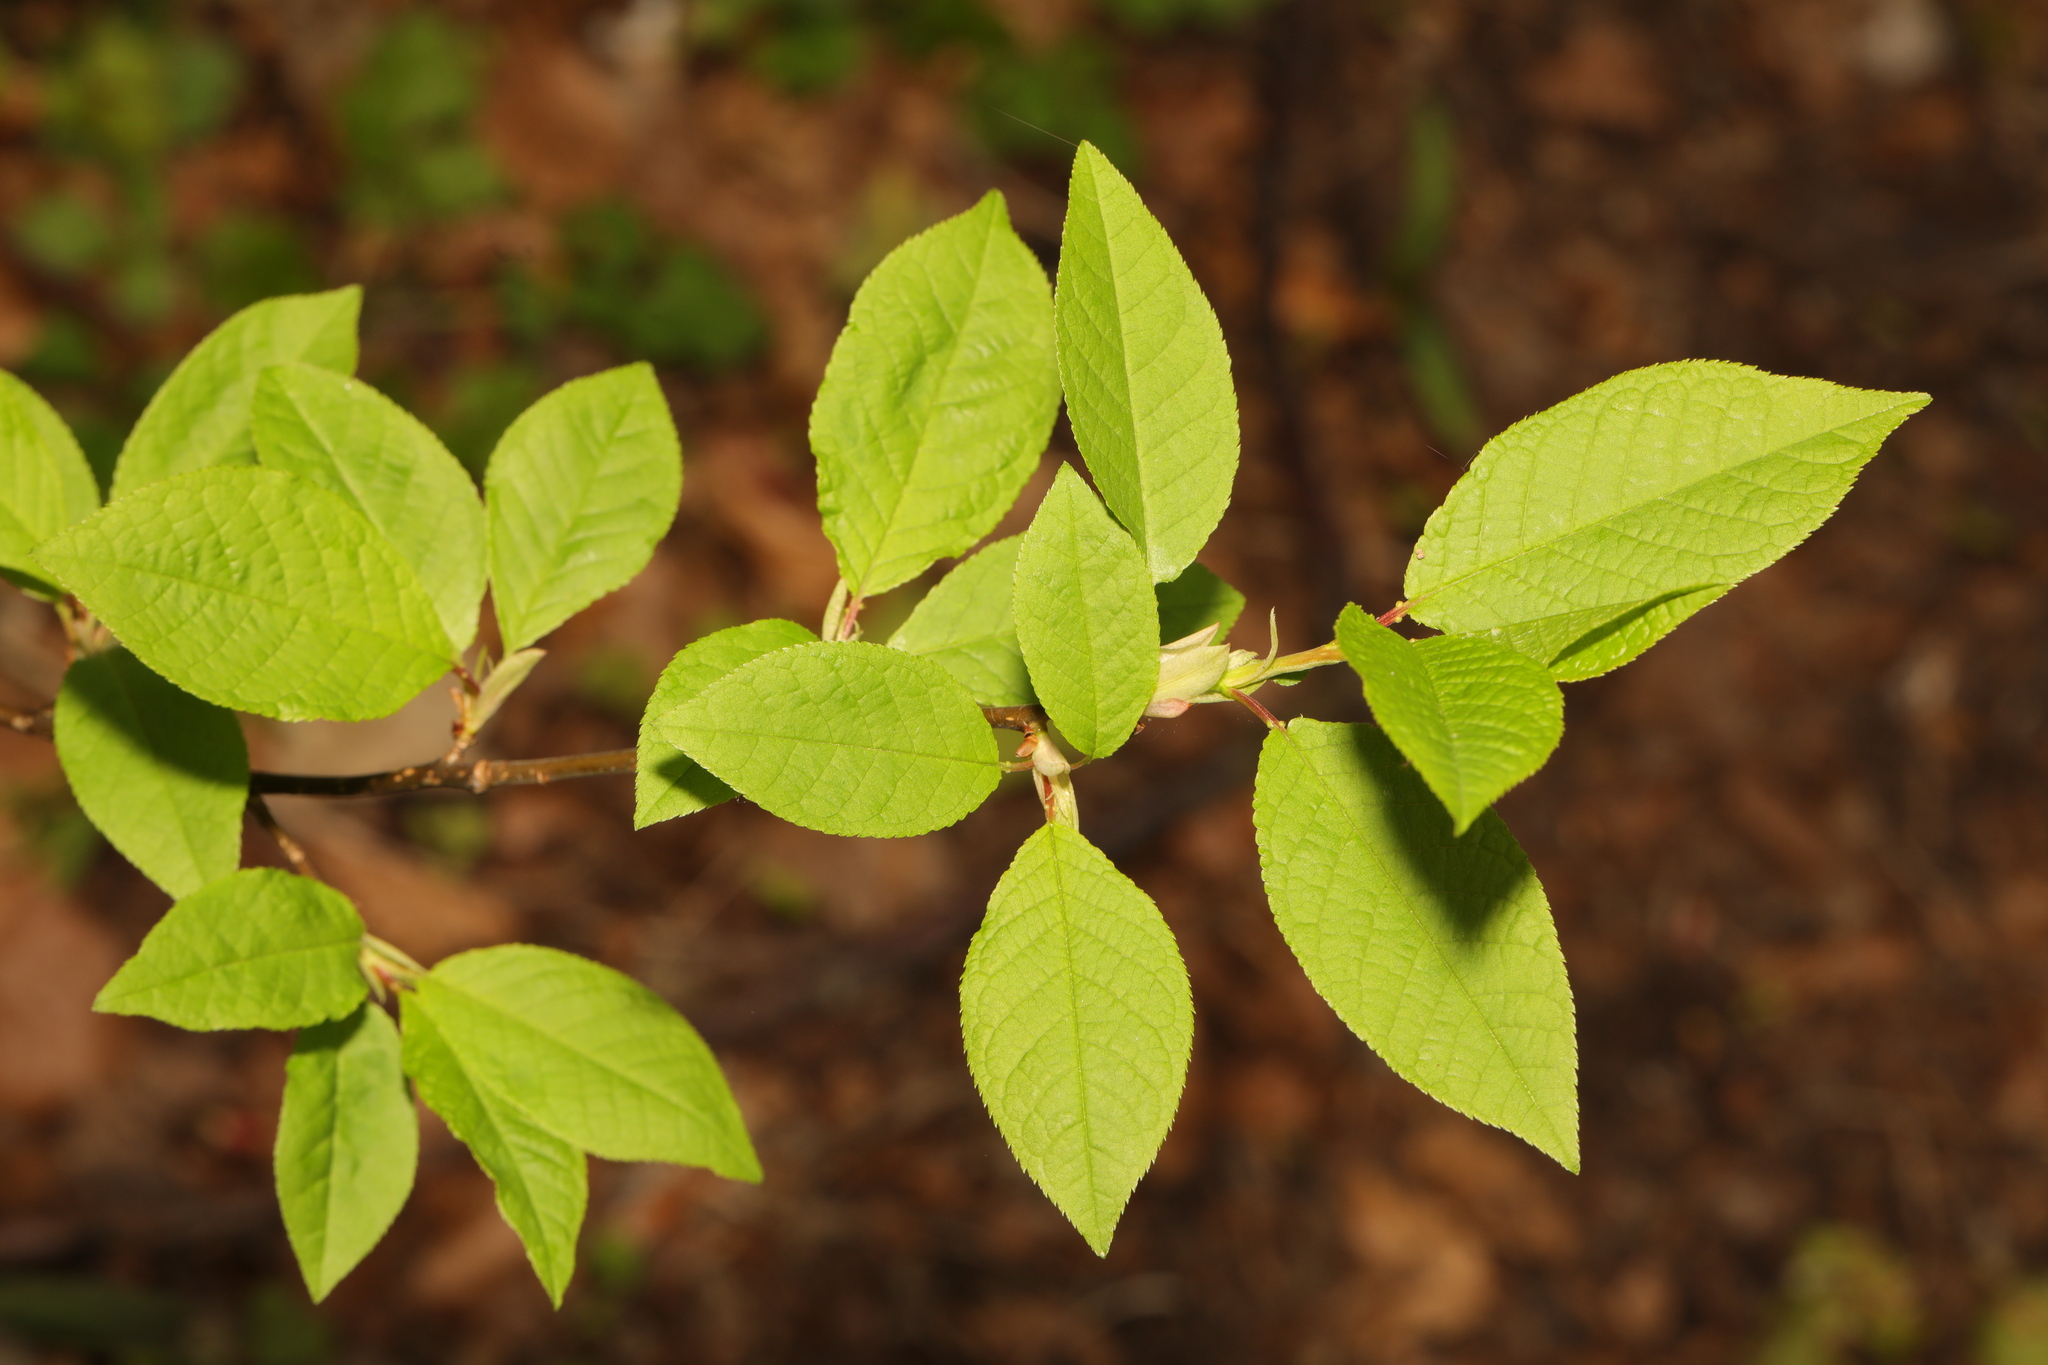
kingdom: Plantae
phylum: Tracheophyta
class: Magnoliopsida
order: Rosales
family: Rosaceae
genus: Prunus
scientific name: Prunus padus
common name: Bird cherry
